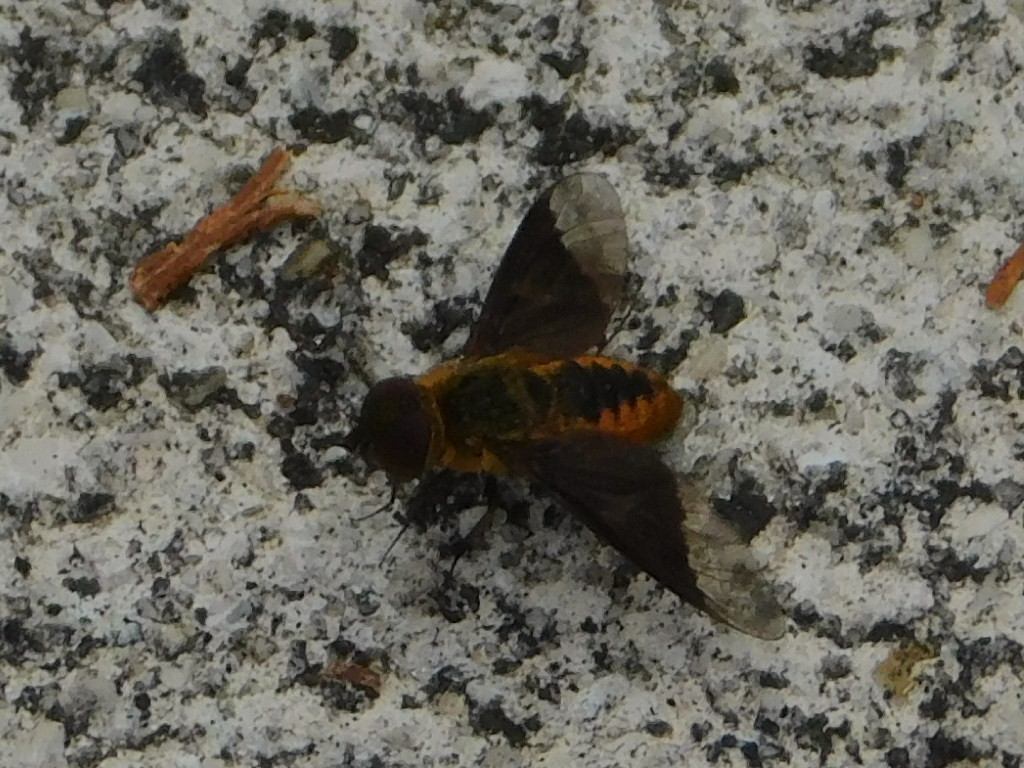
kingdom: Animalia
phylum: Arthropoda
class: Insecta
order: Diptera
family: Bombyliidae
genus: Chrysanthrax
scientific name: Chrysanthrax cypris
